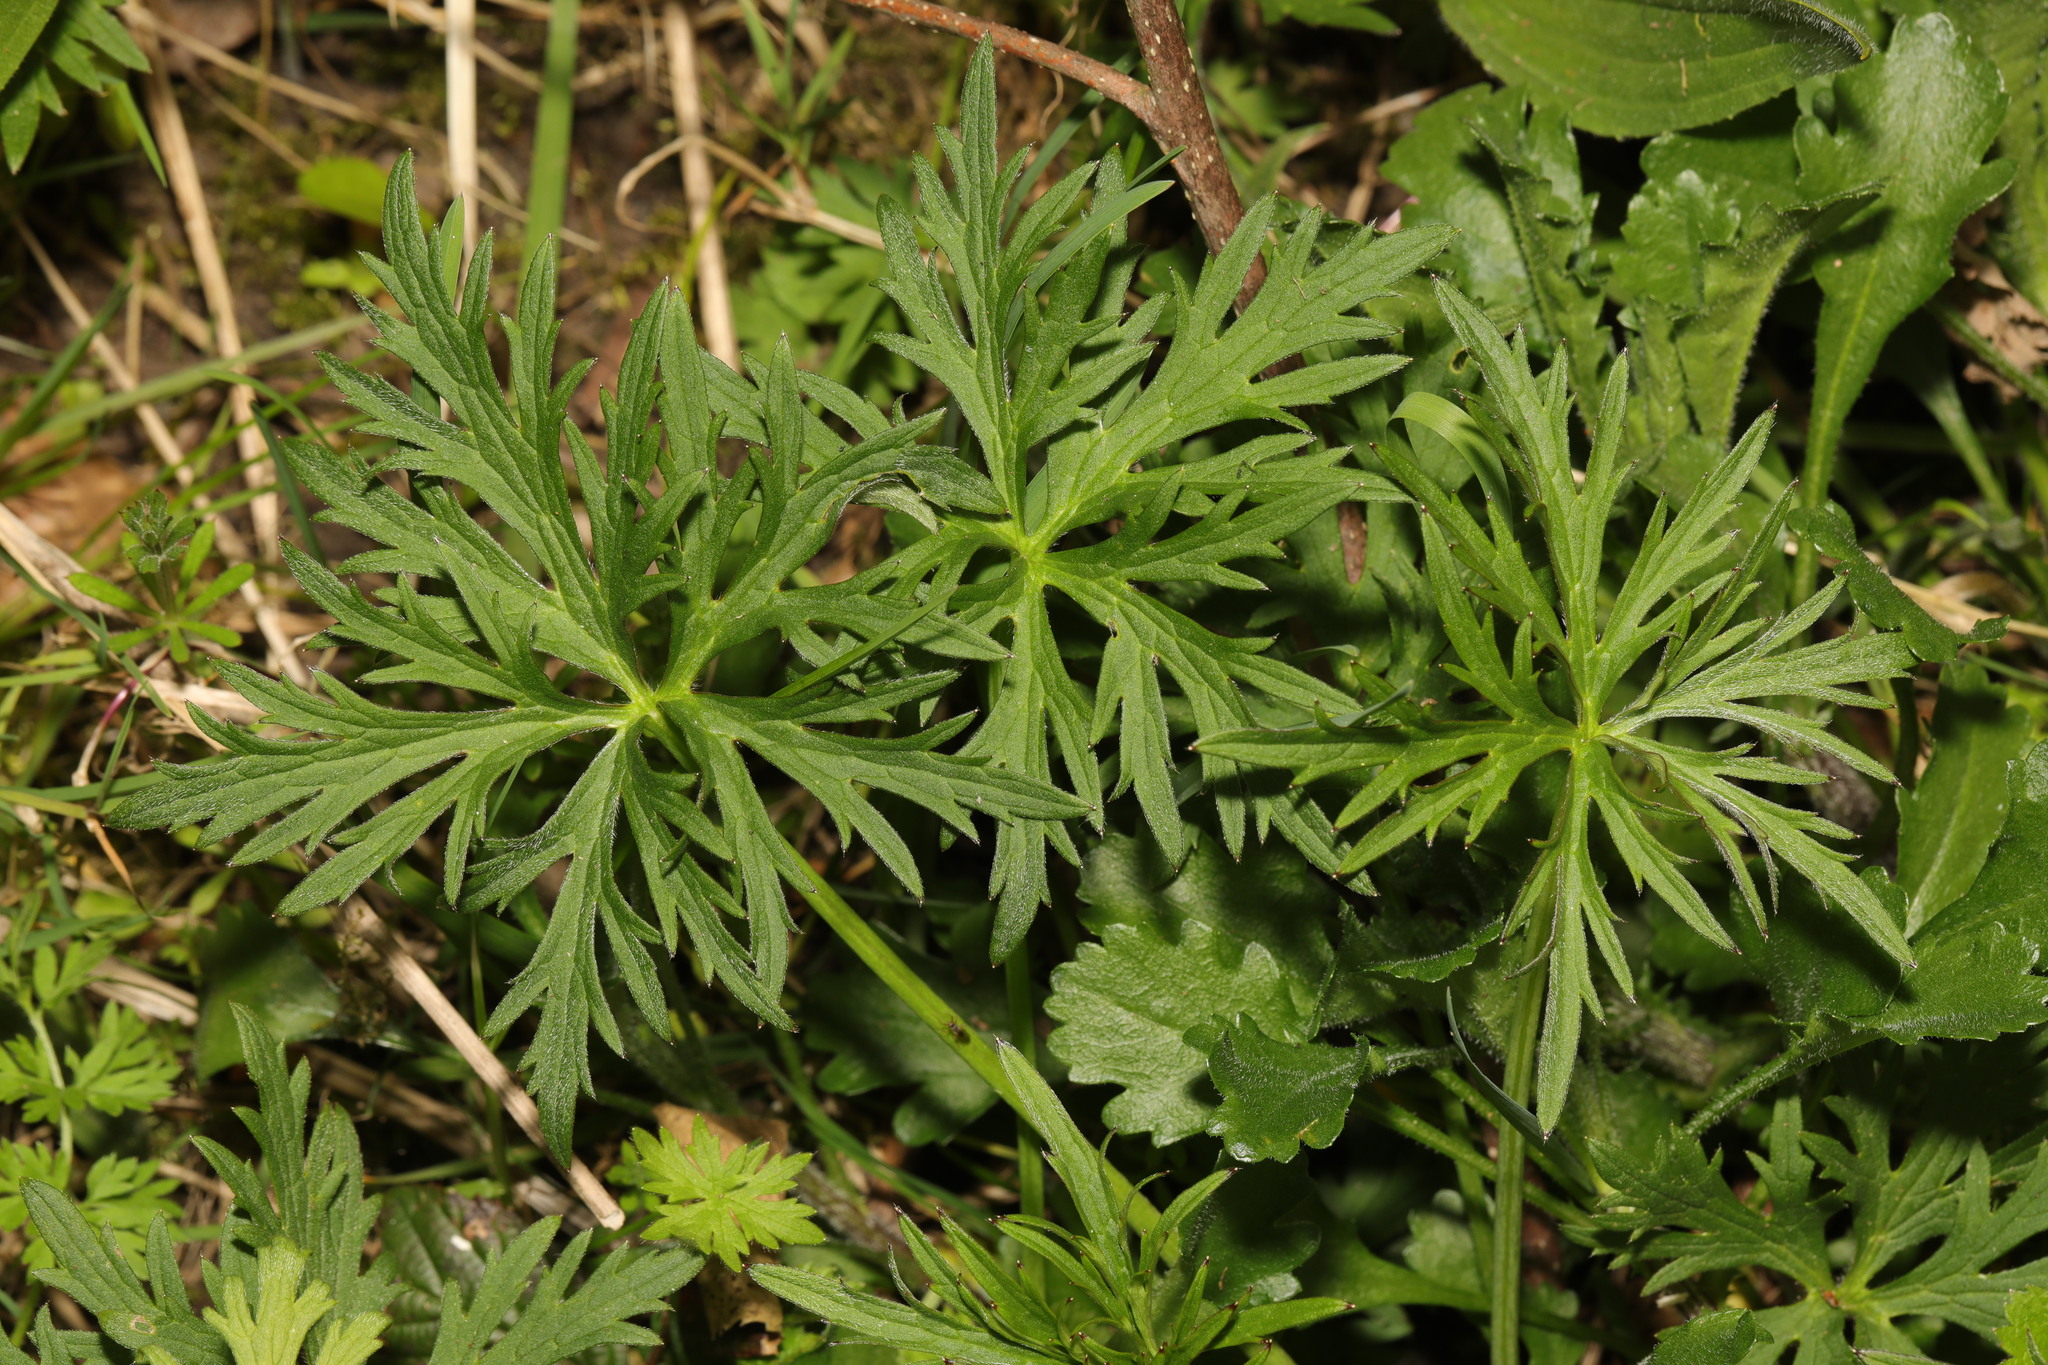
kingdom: Plantae
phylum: Tracheophyta
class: Magnoliopsida
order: Ranunculales
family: Ranunculaceae
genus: Ranunculus
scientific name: Ranunculus acris
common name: Meadow buttercup
